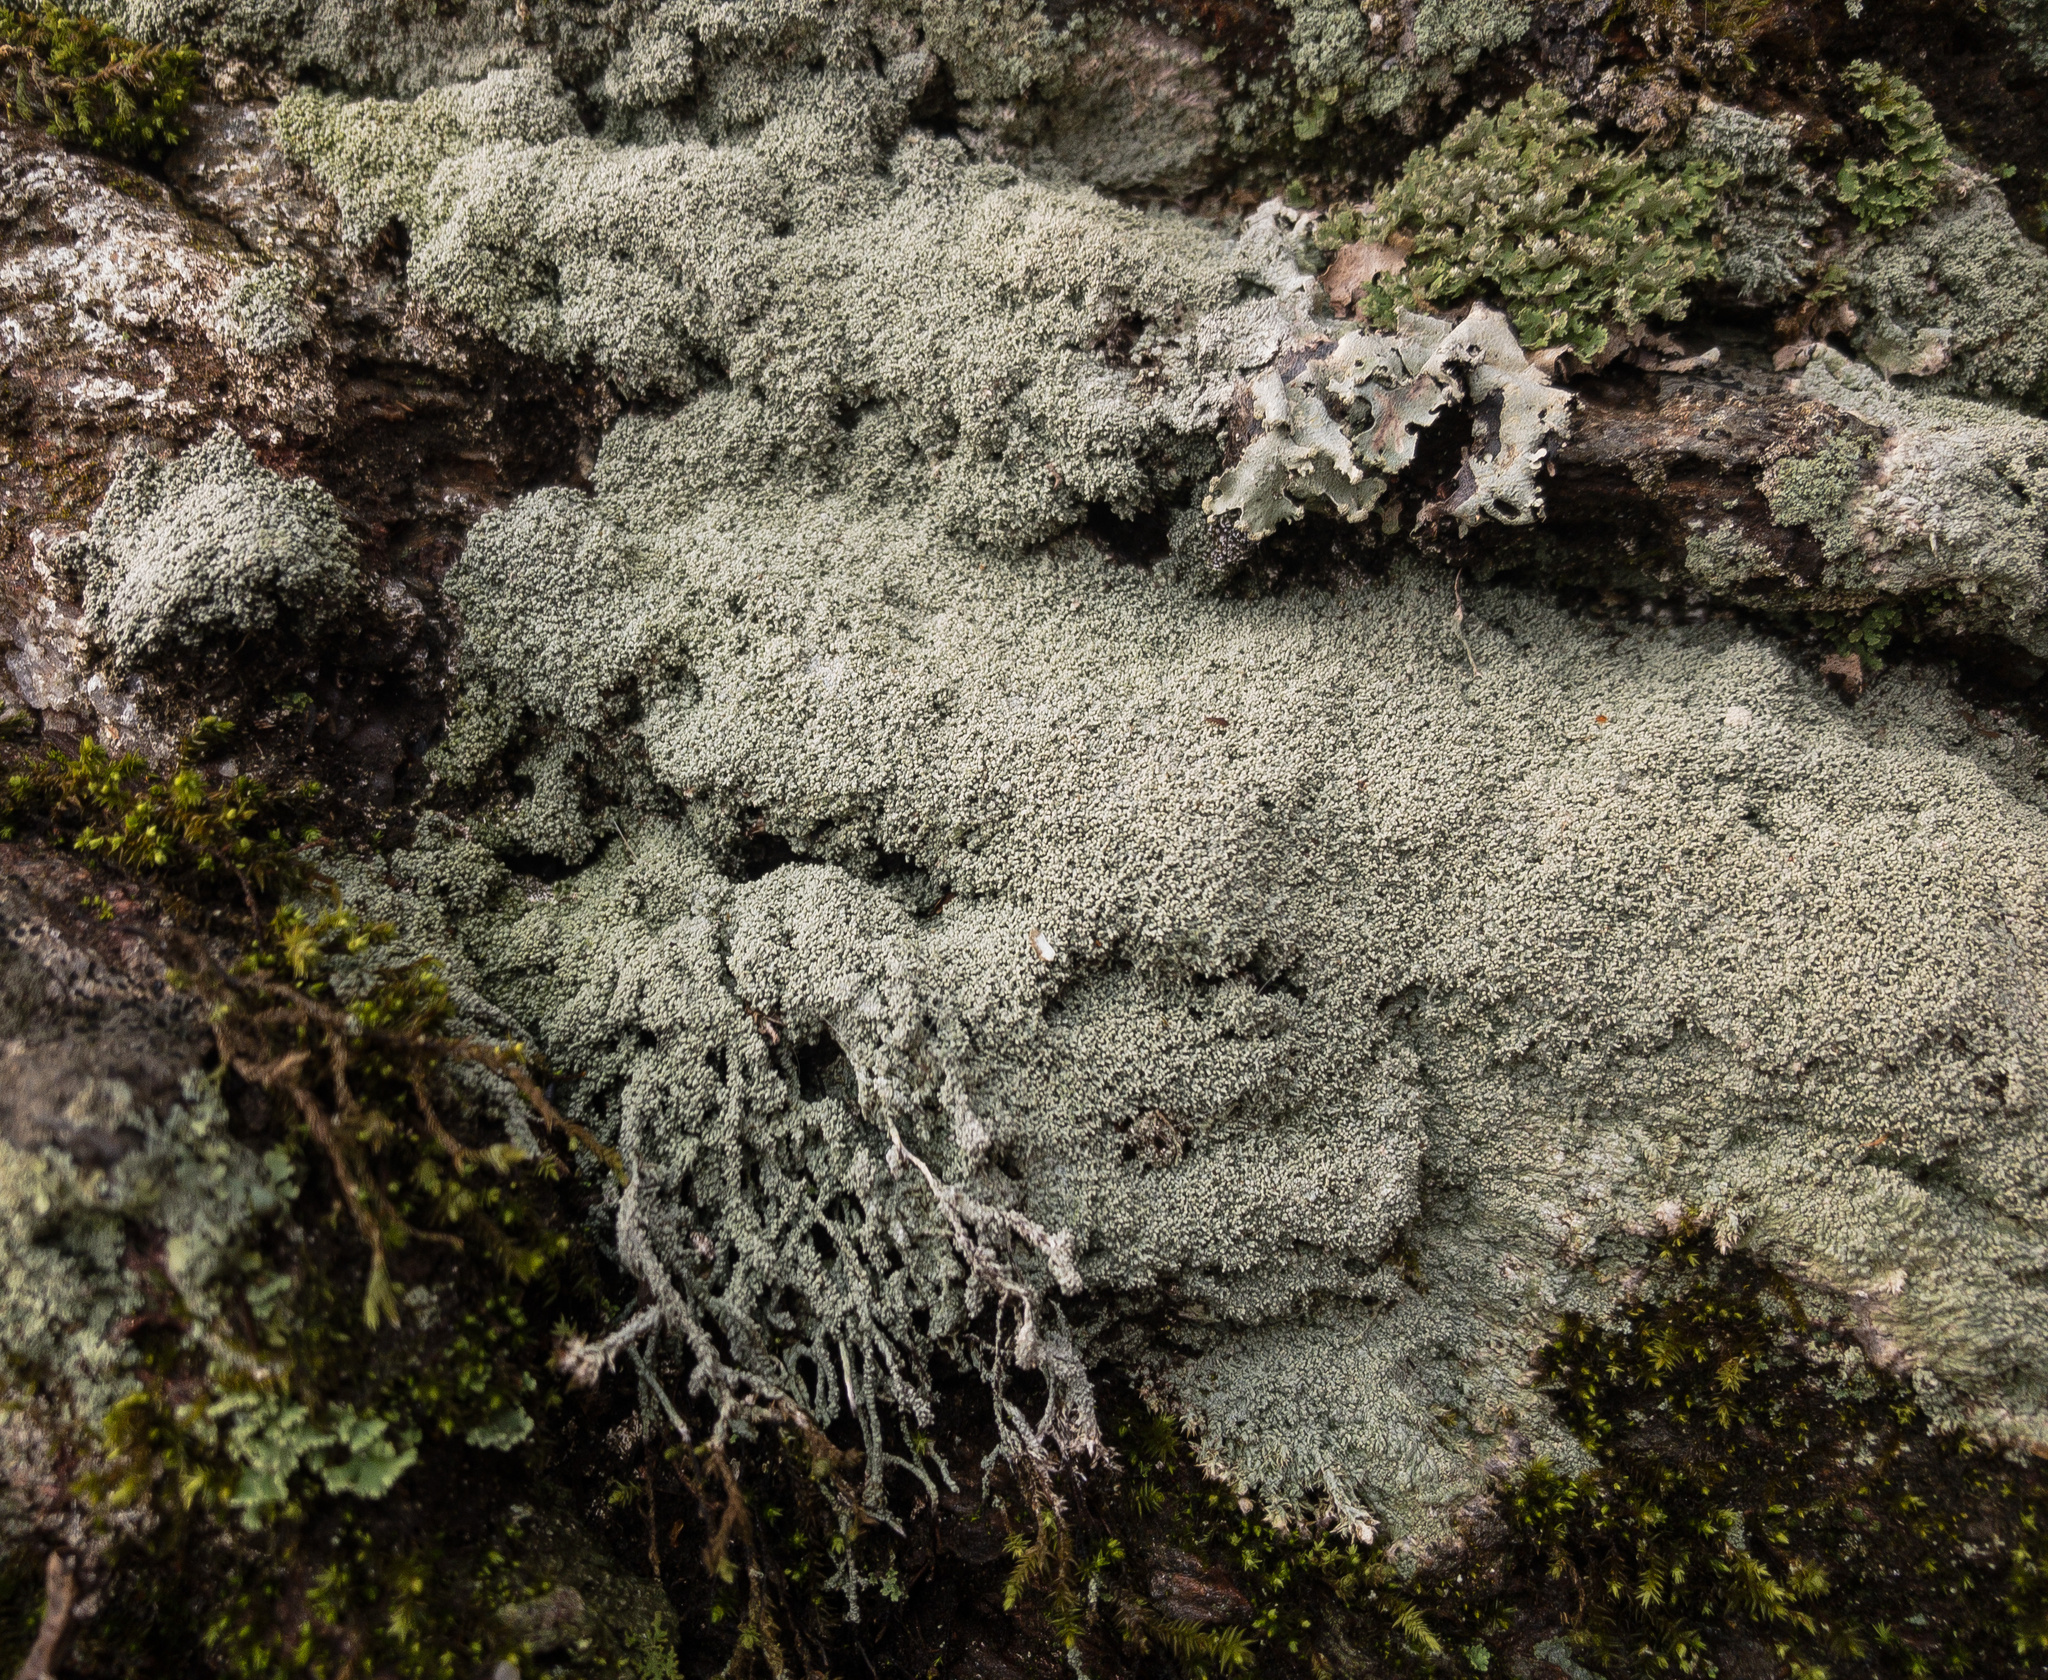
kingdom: Fungi
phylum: Ascomycota
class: Lecanoromycetes
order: Pertusariales
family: Ochrolechiaceae
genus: Ochrolechia
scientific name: Ochrolechia yasudae
